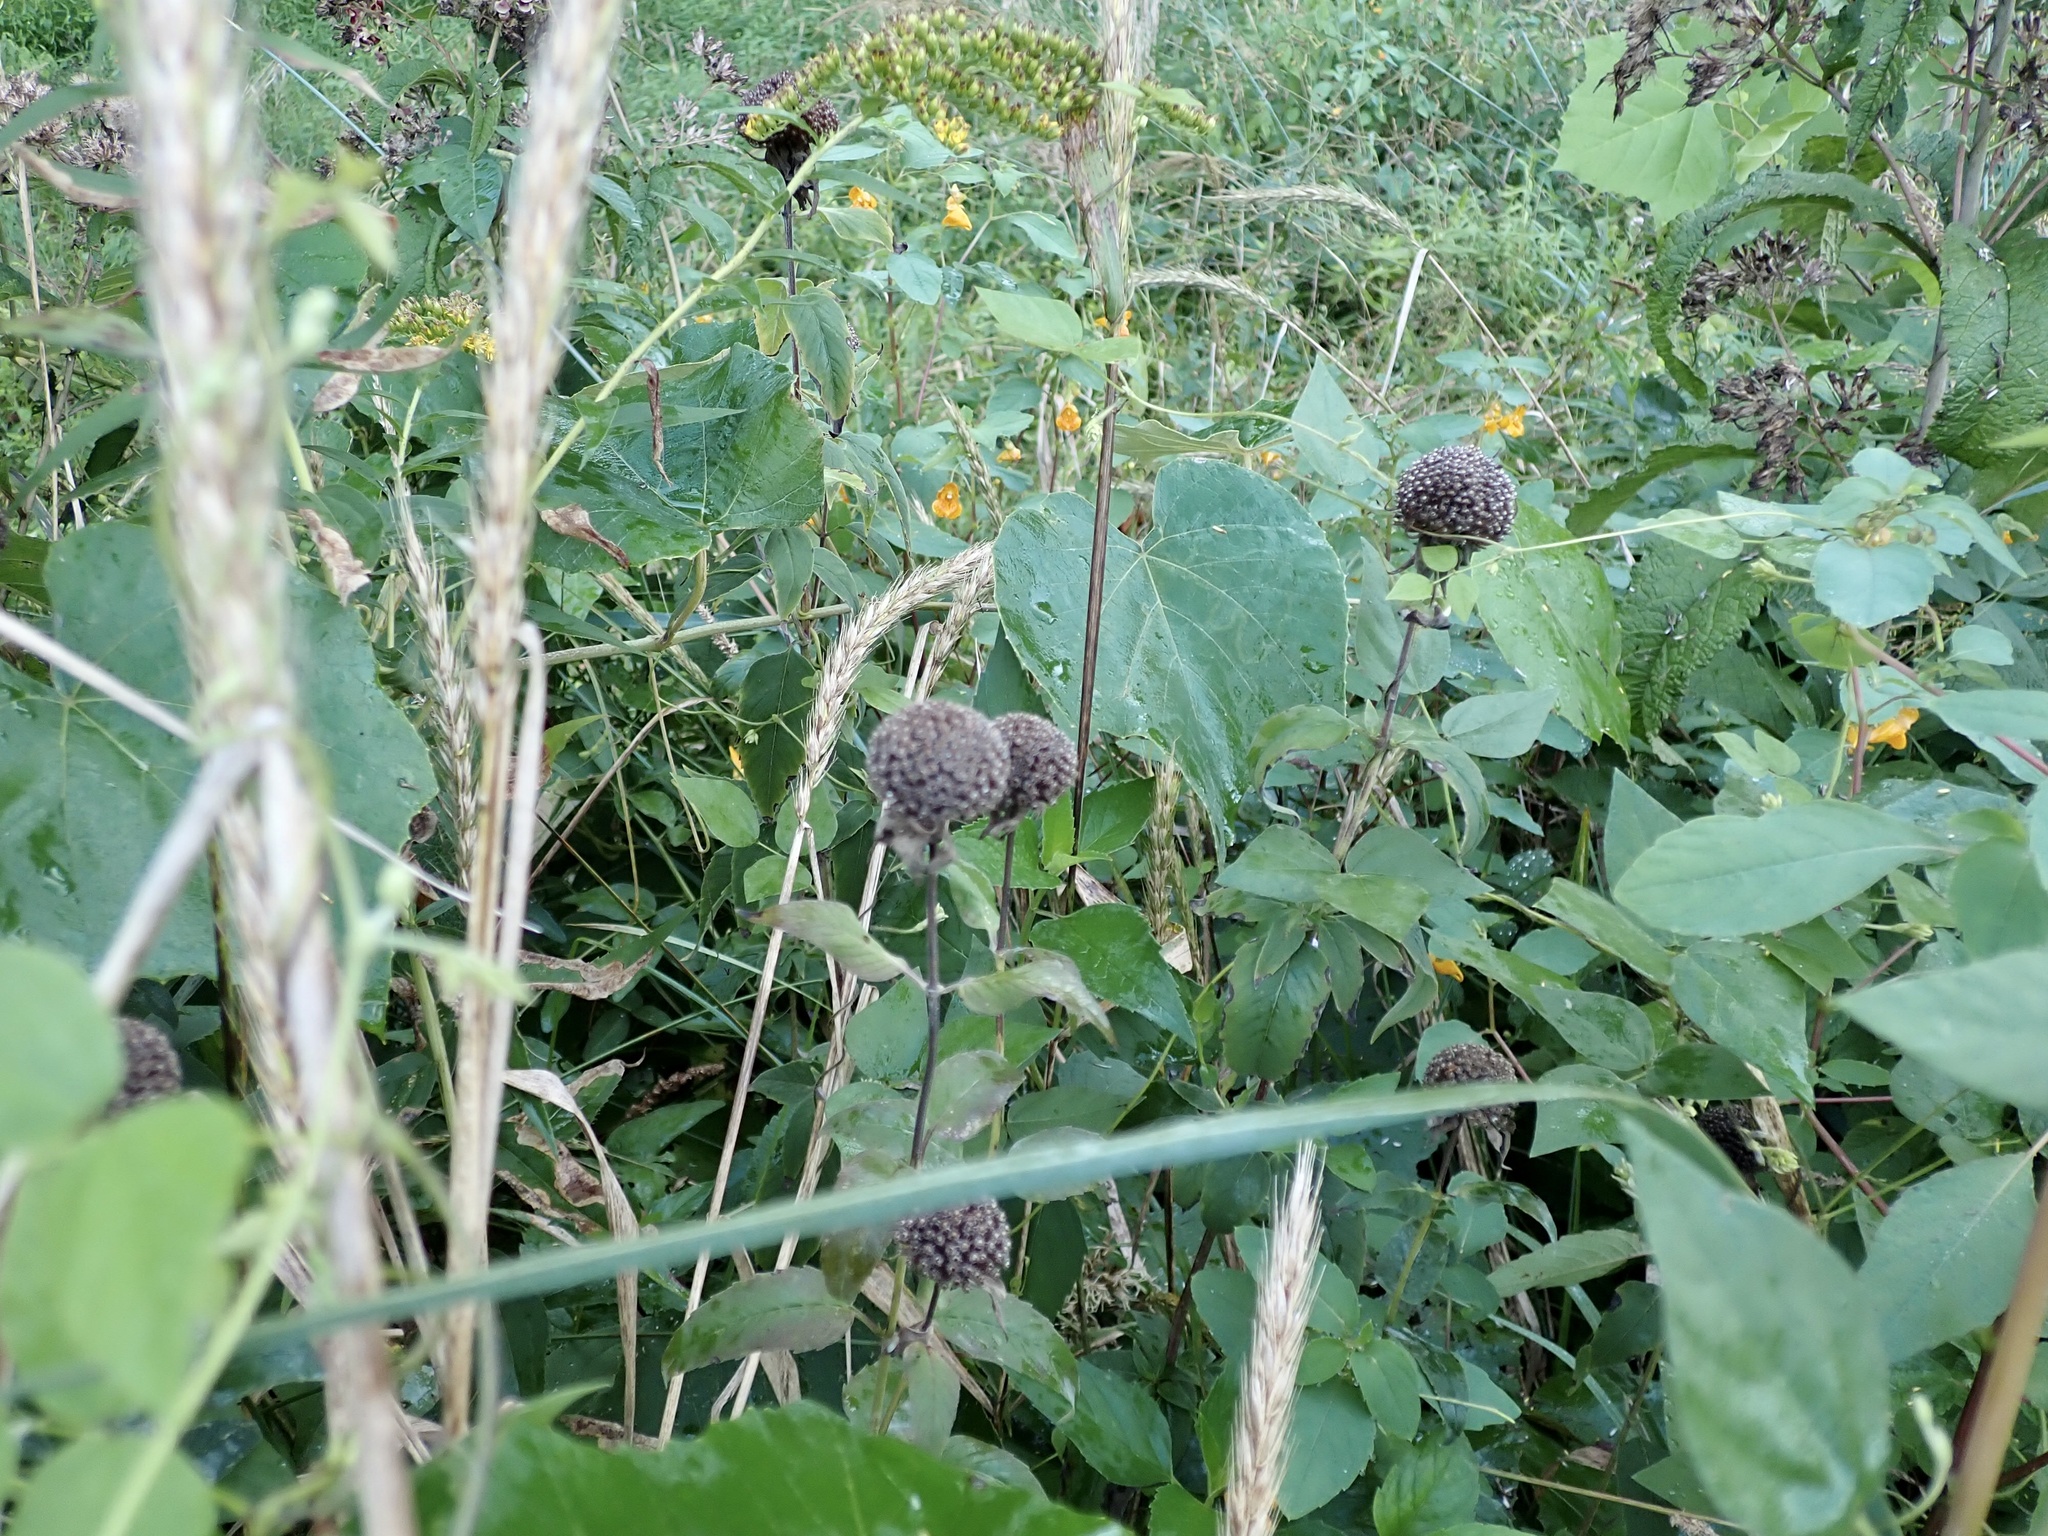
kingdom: Plantae
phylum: Tracheophyta
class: Magnoliopsida
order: Lamiales
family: Lamiaceae
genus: Monarda
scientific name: Monarda fistulosa
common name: Purple beebalm
